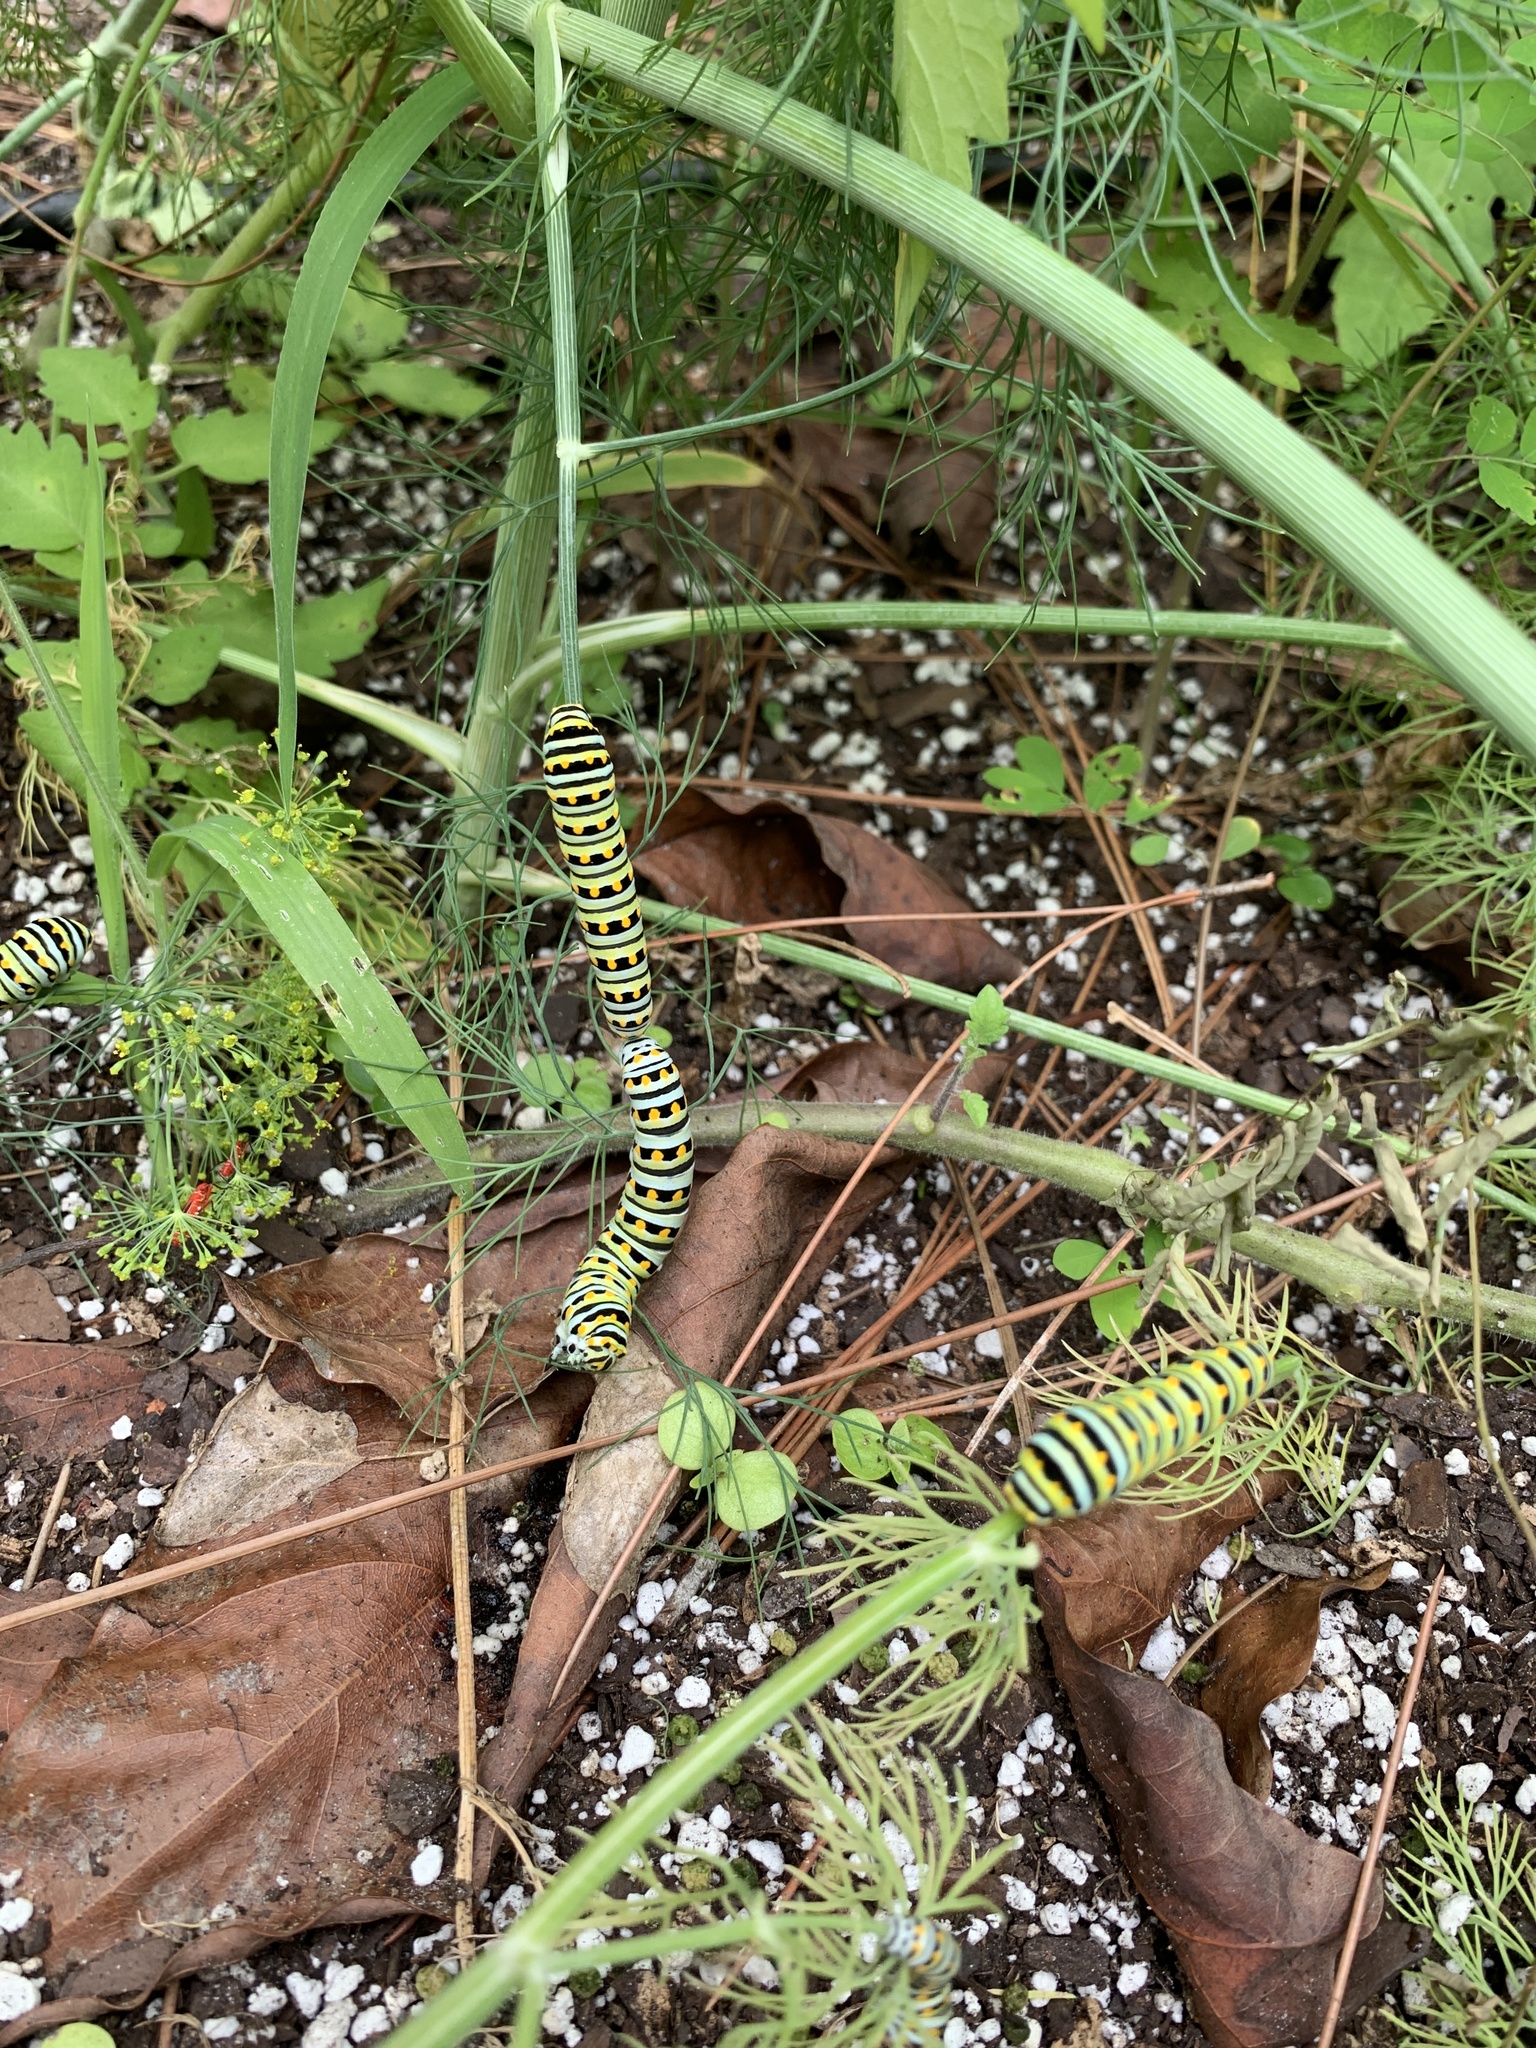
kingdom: Animalia
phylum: Arthropoda
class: Insecta
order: Lepidoptera
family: Papilionidae
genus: Papilio
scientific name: Papilio polyxenes
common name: Black swallowtail
